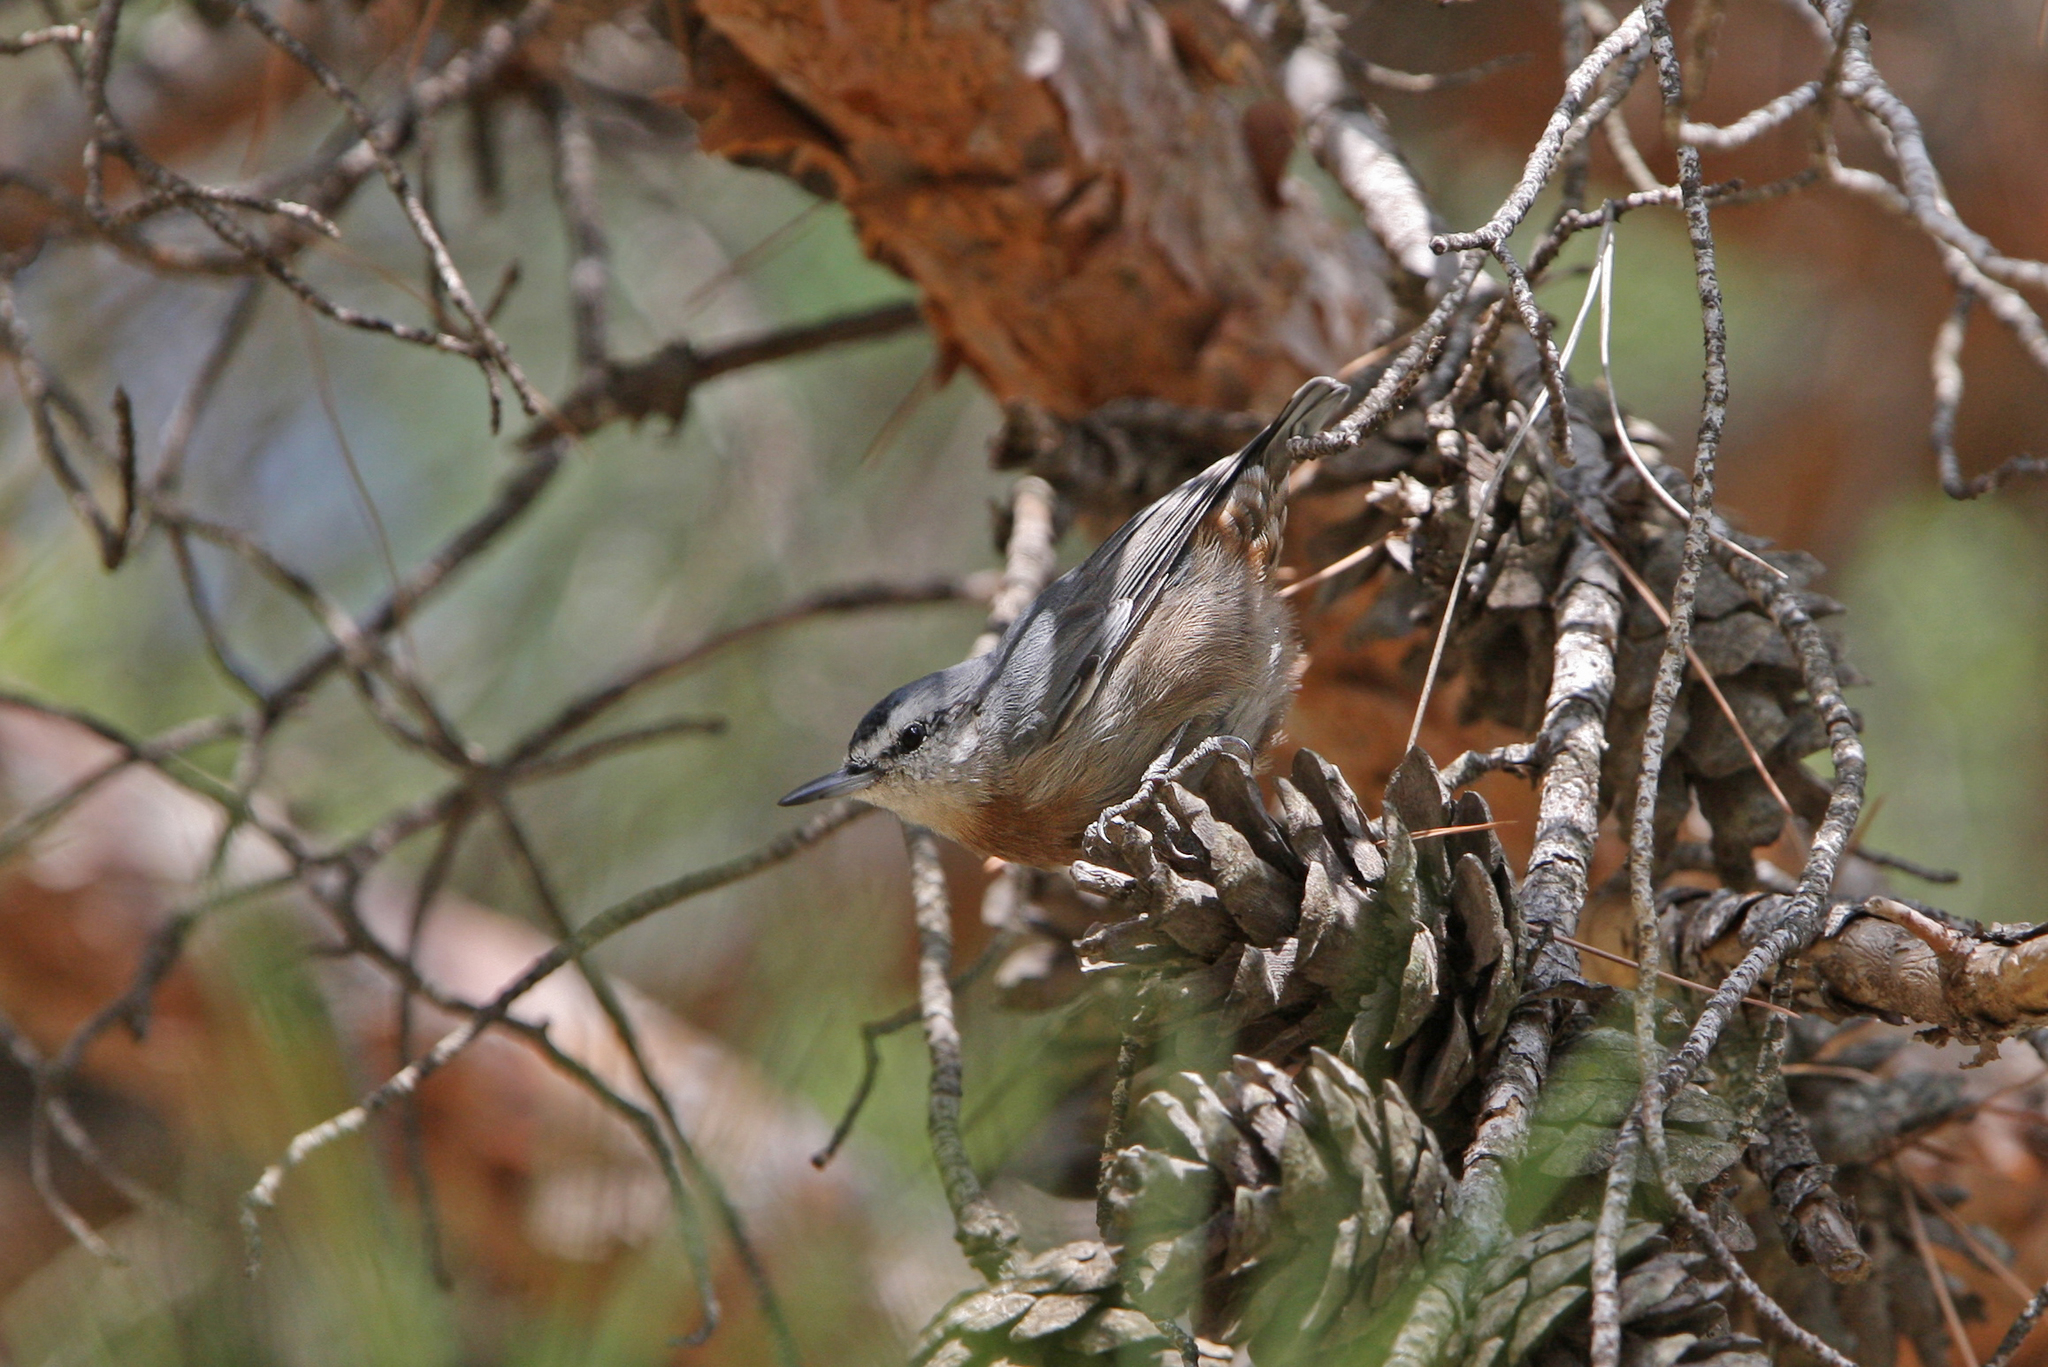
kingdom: Animalia
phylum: Chordata
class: Aves
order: Passeriformes
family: Sittidae
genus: Sitta
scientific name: Sitta krueperi
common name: Krüper's nuthatch
